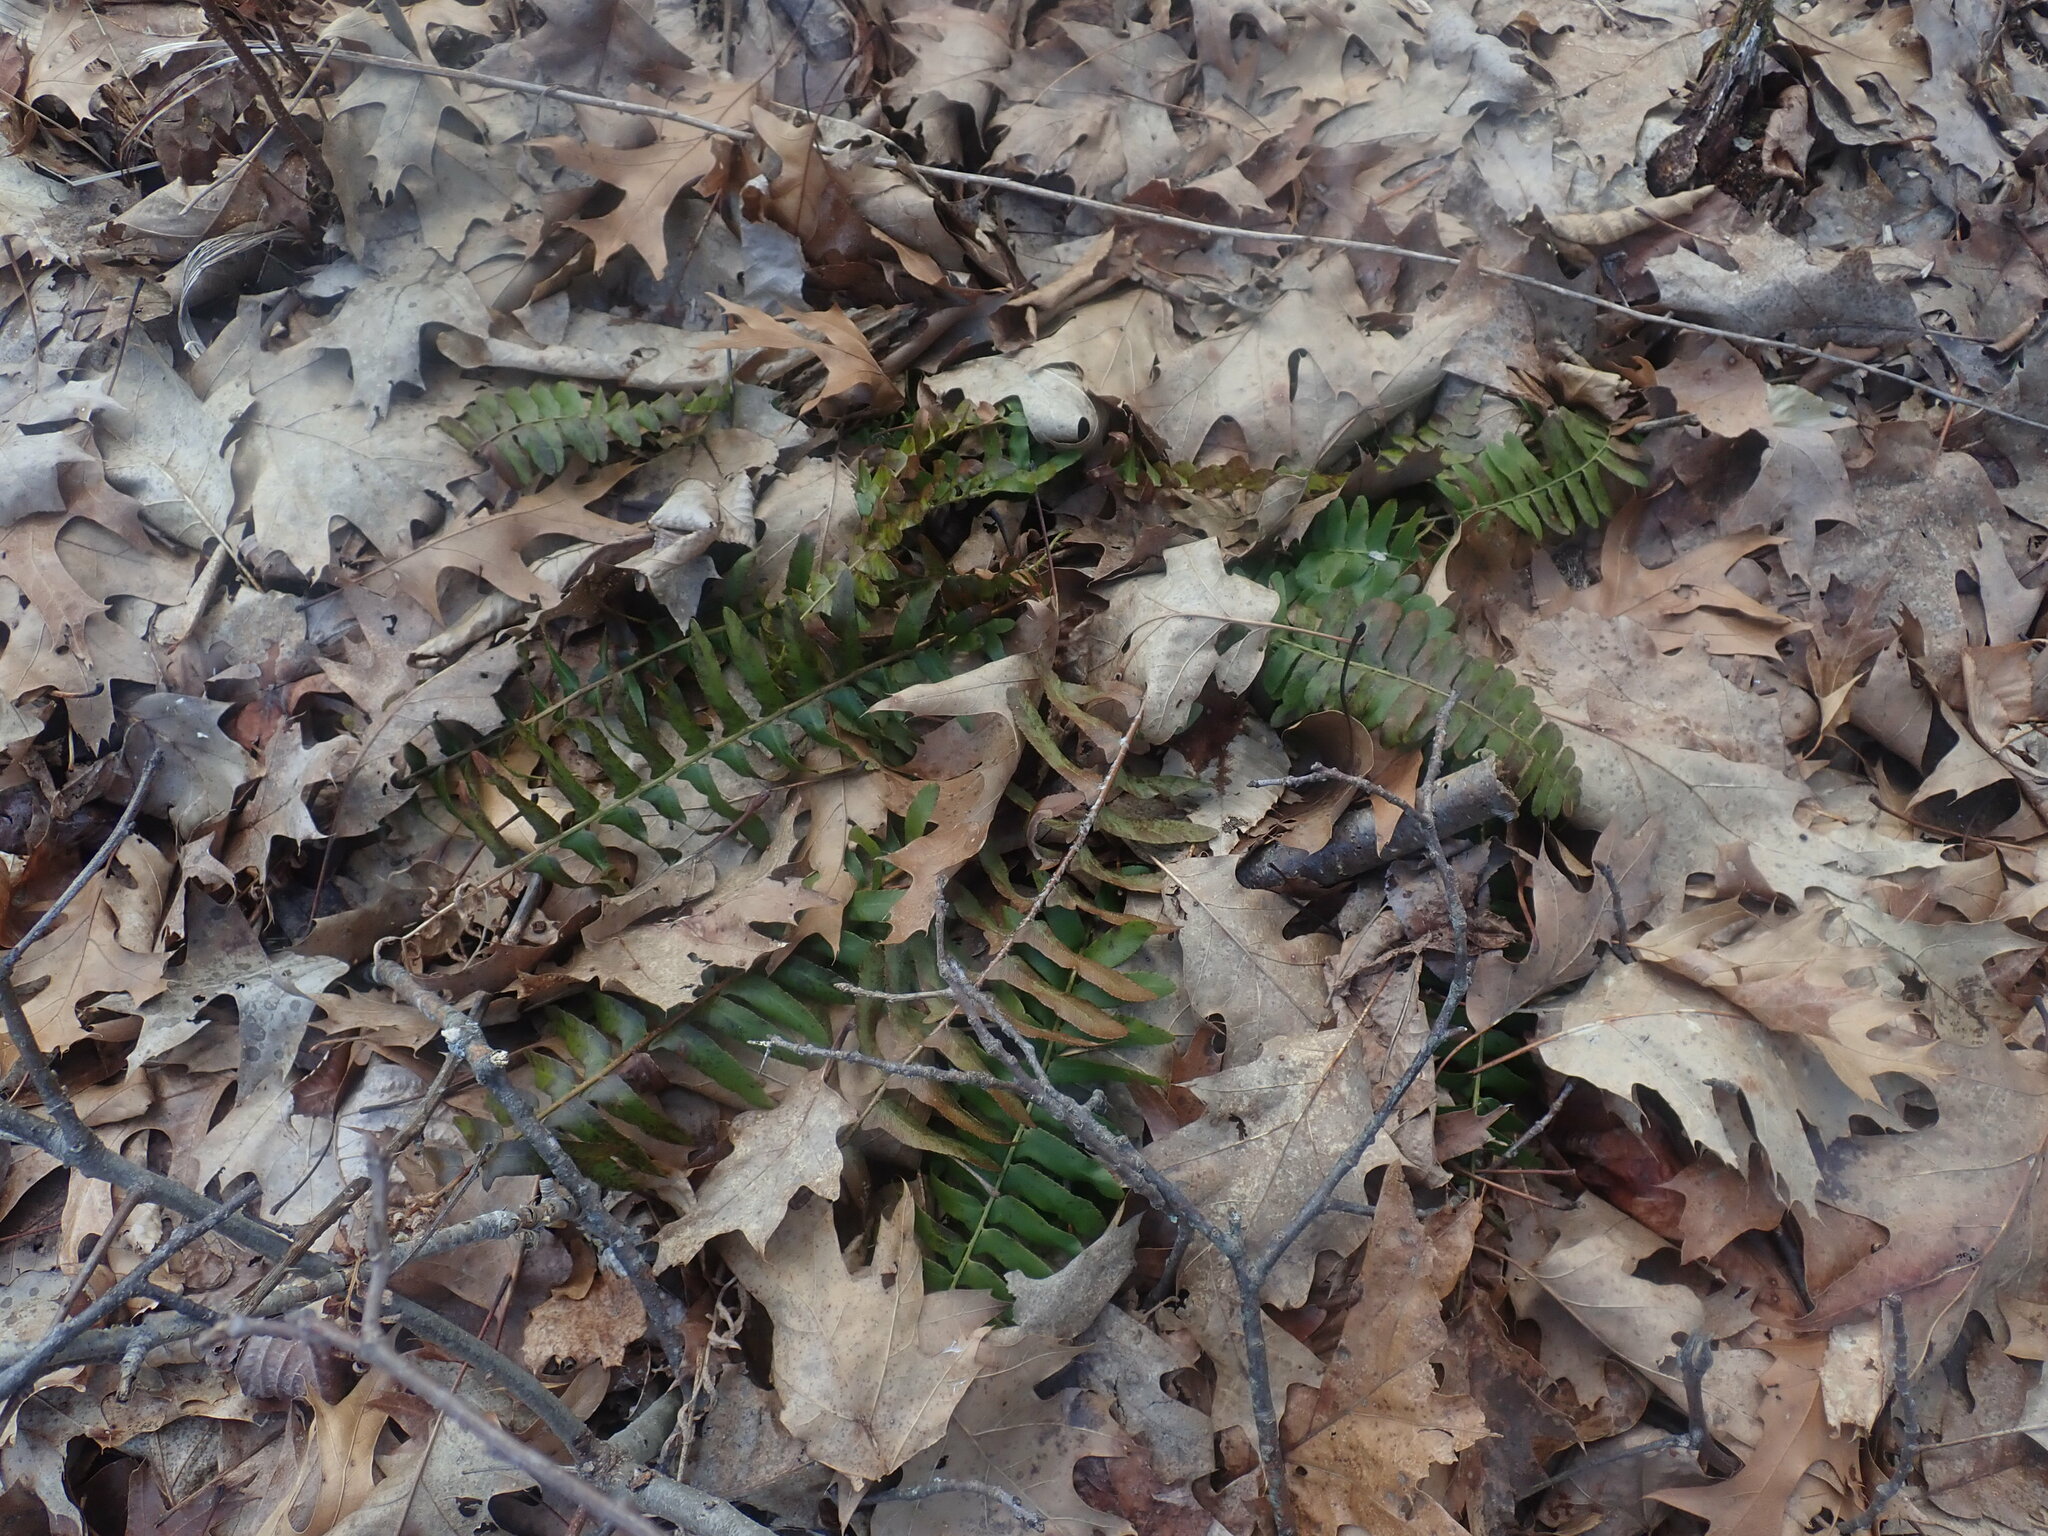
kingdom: Plantae
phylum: Tracheophyta
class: Polypodiopsida
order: Polypodiales
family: Dryopteridaceae
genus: Polystichum
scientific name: Polystichum acrostichoides
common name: Christmas fern
